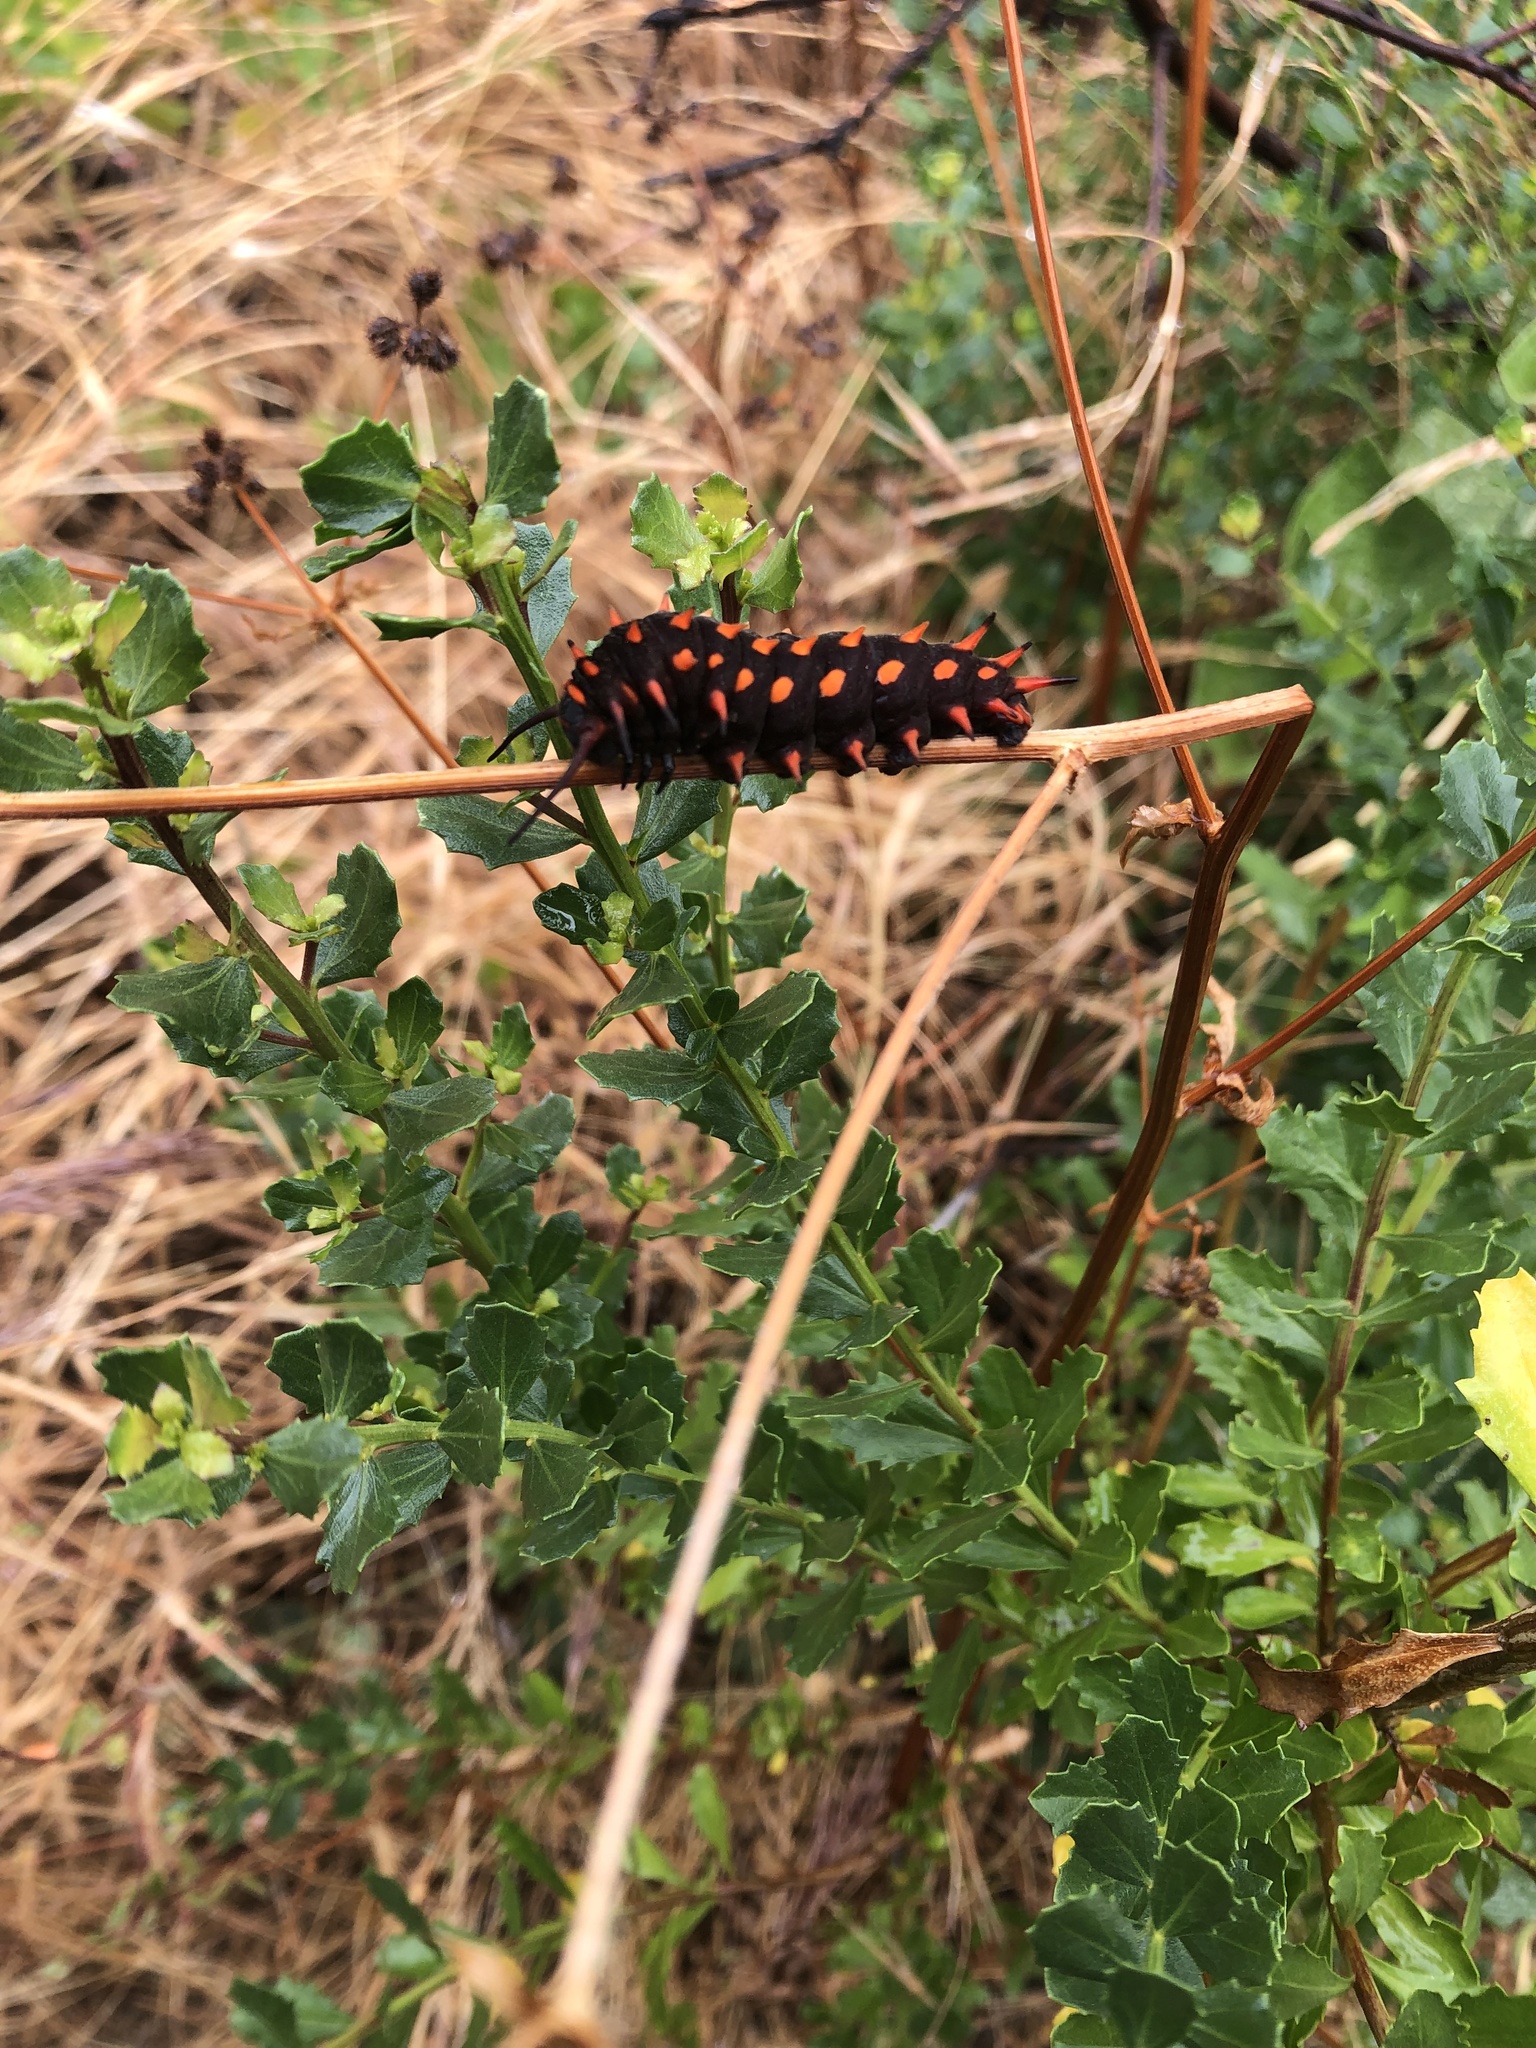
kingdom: Animalia
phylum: Arthropoda
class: Insecta
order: Lepidoptera
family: Papilionidae
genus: Battus
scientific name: Battus philenor
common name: Pipevine swallowtail
